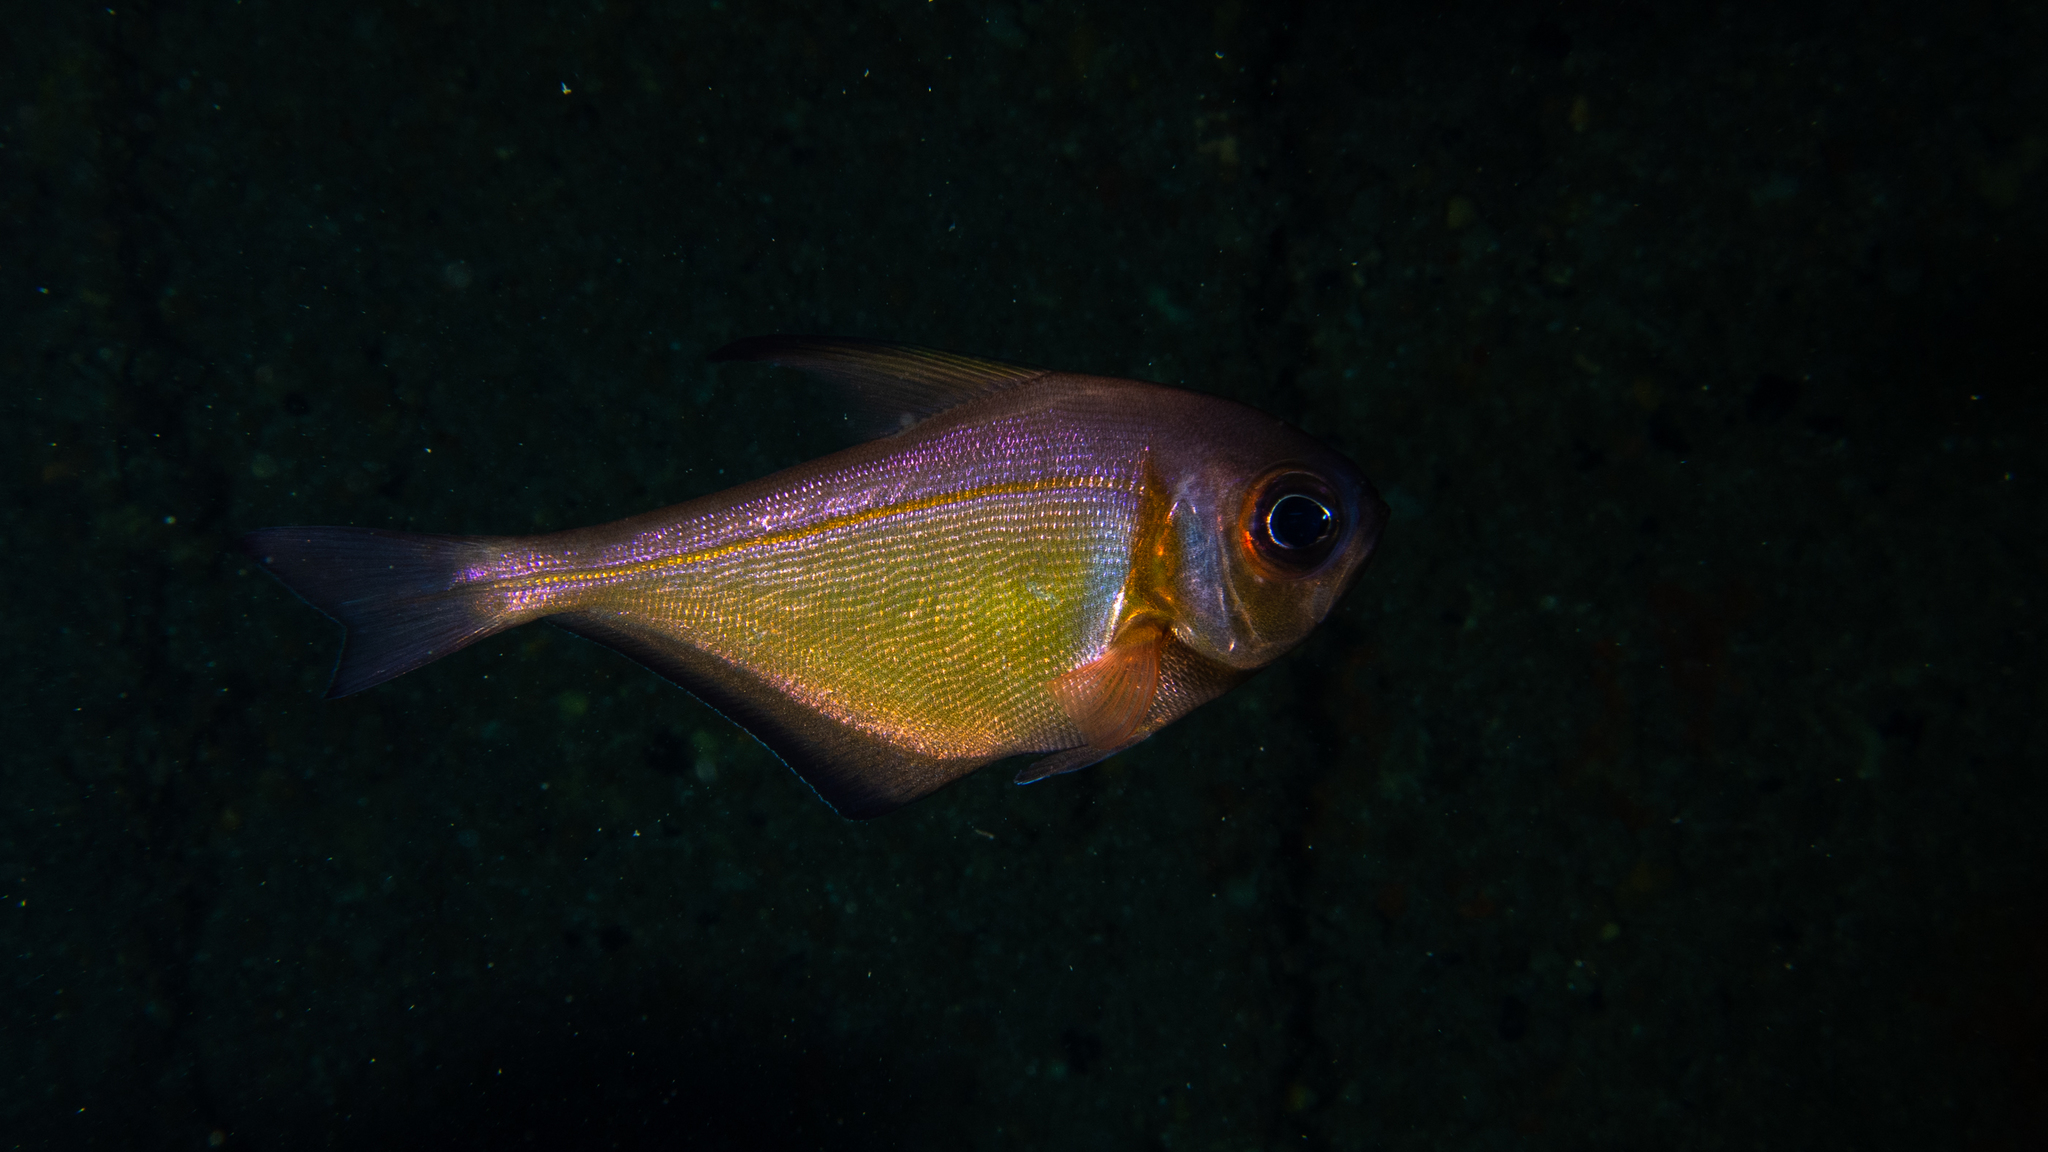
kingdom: Animalia
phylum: Chordata
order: Perciformes
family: Pempheridae
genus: Pempheris
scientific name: Pempheris klunzingeri
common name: Klunzinger's bullseye
